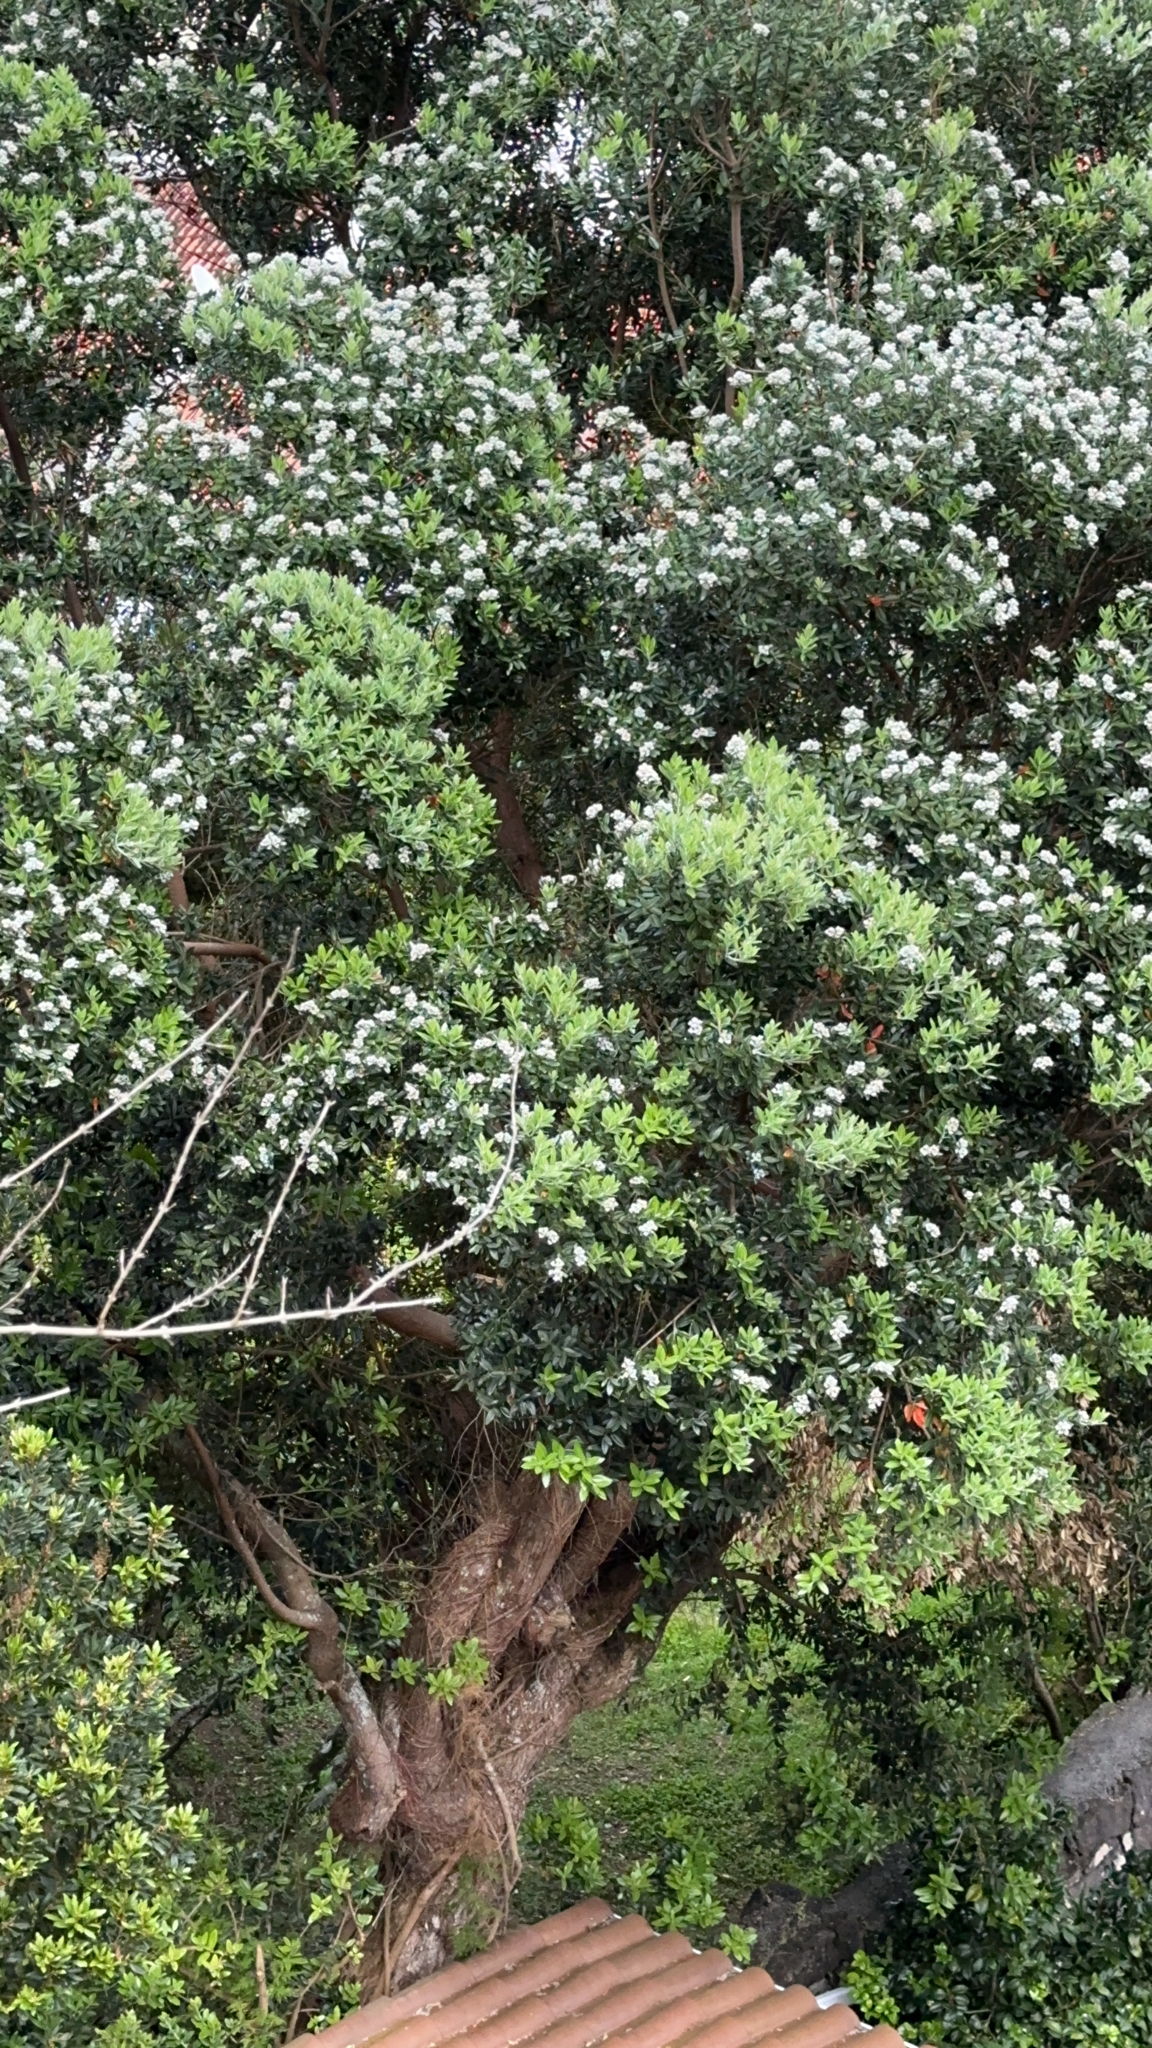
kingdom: Plantae
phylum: Tracheophyta
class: Magnoliopsida
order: Myrtales
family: Myrtaceae
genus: Metrosideros
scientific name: Metrosideros excelsa
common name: New zealand christmastree
